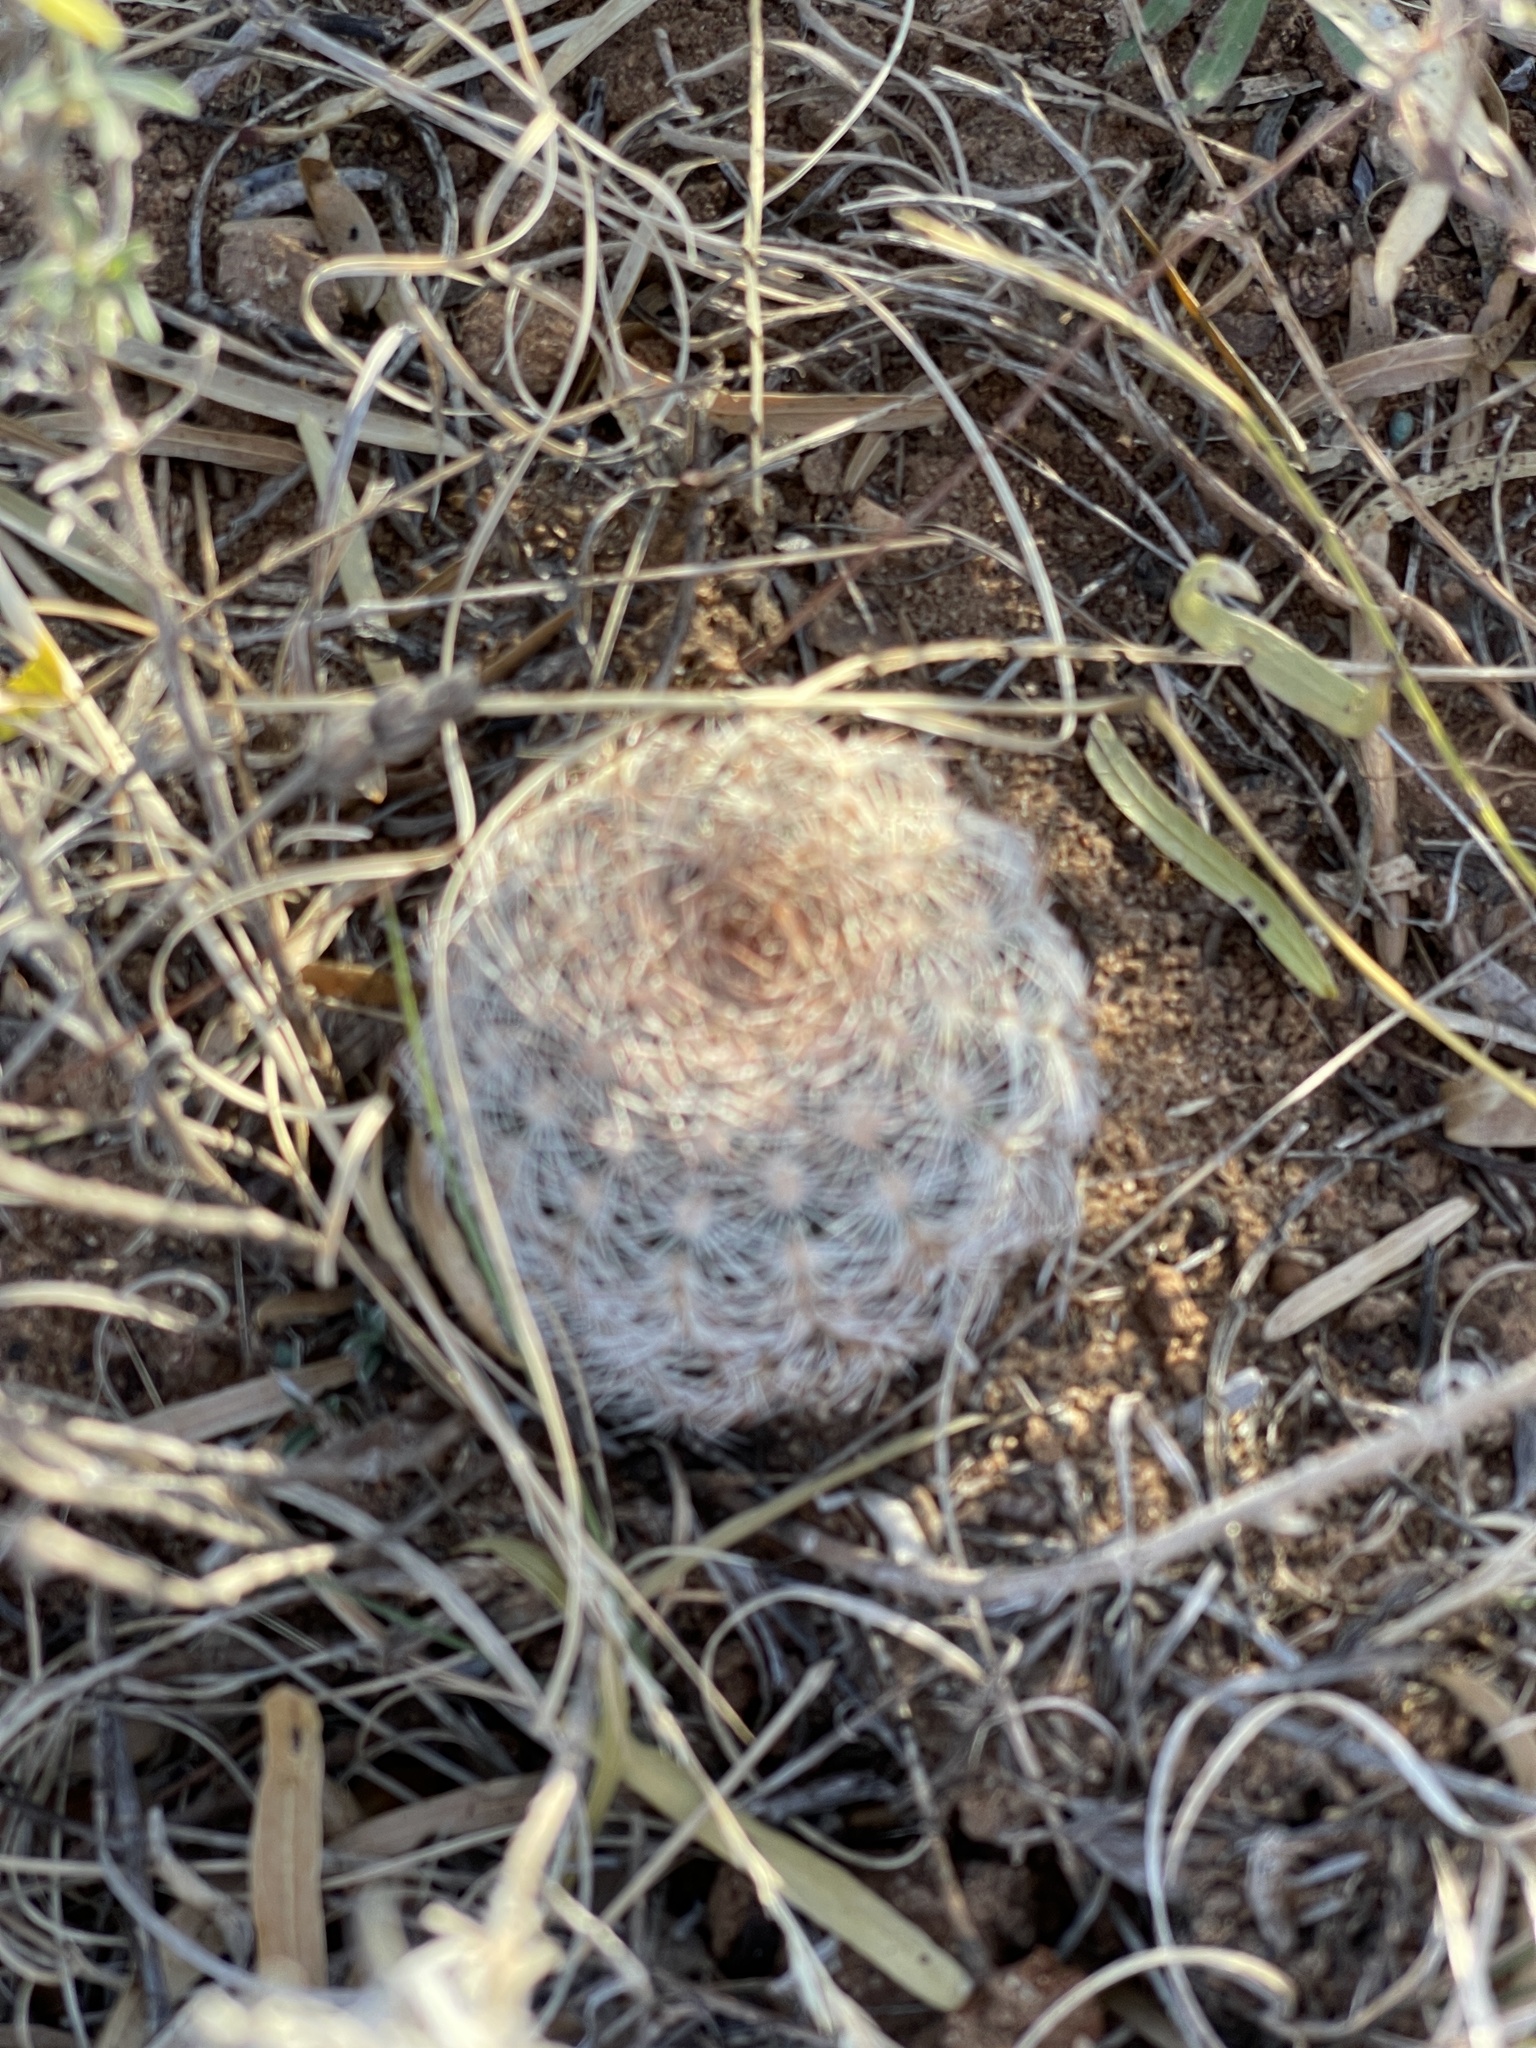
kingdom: Plantae
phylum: Tracheophyta
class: Magnoliopsida
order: Caryophyllales
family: Cactaceae
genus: Echinocereus
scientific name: Echinocereus reichenbachii
